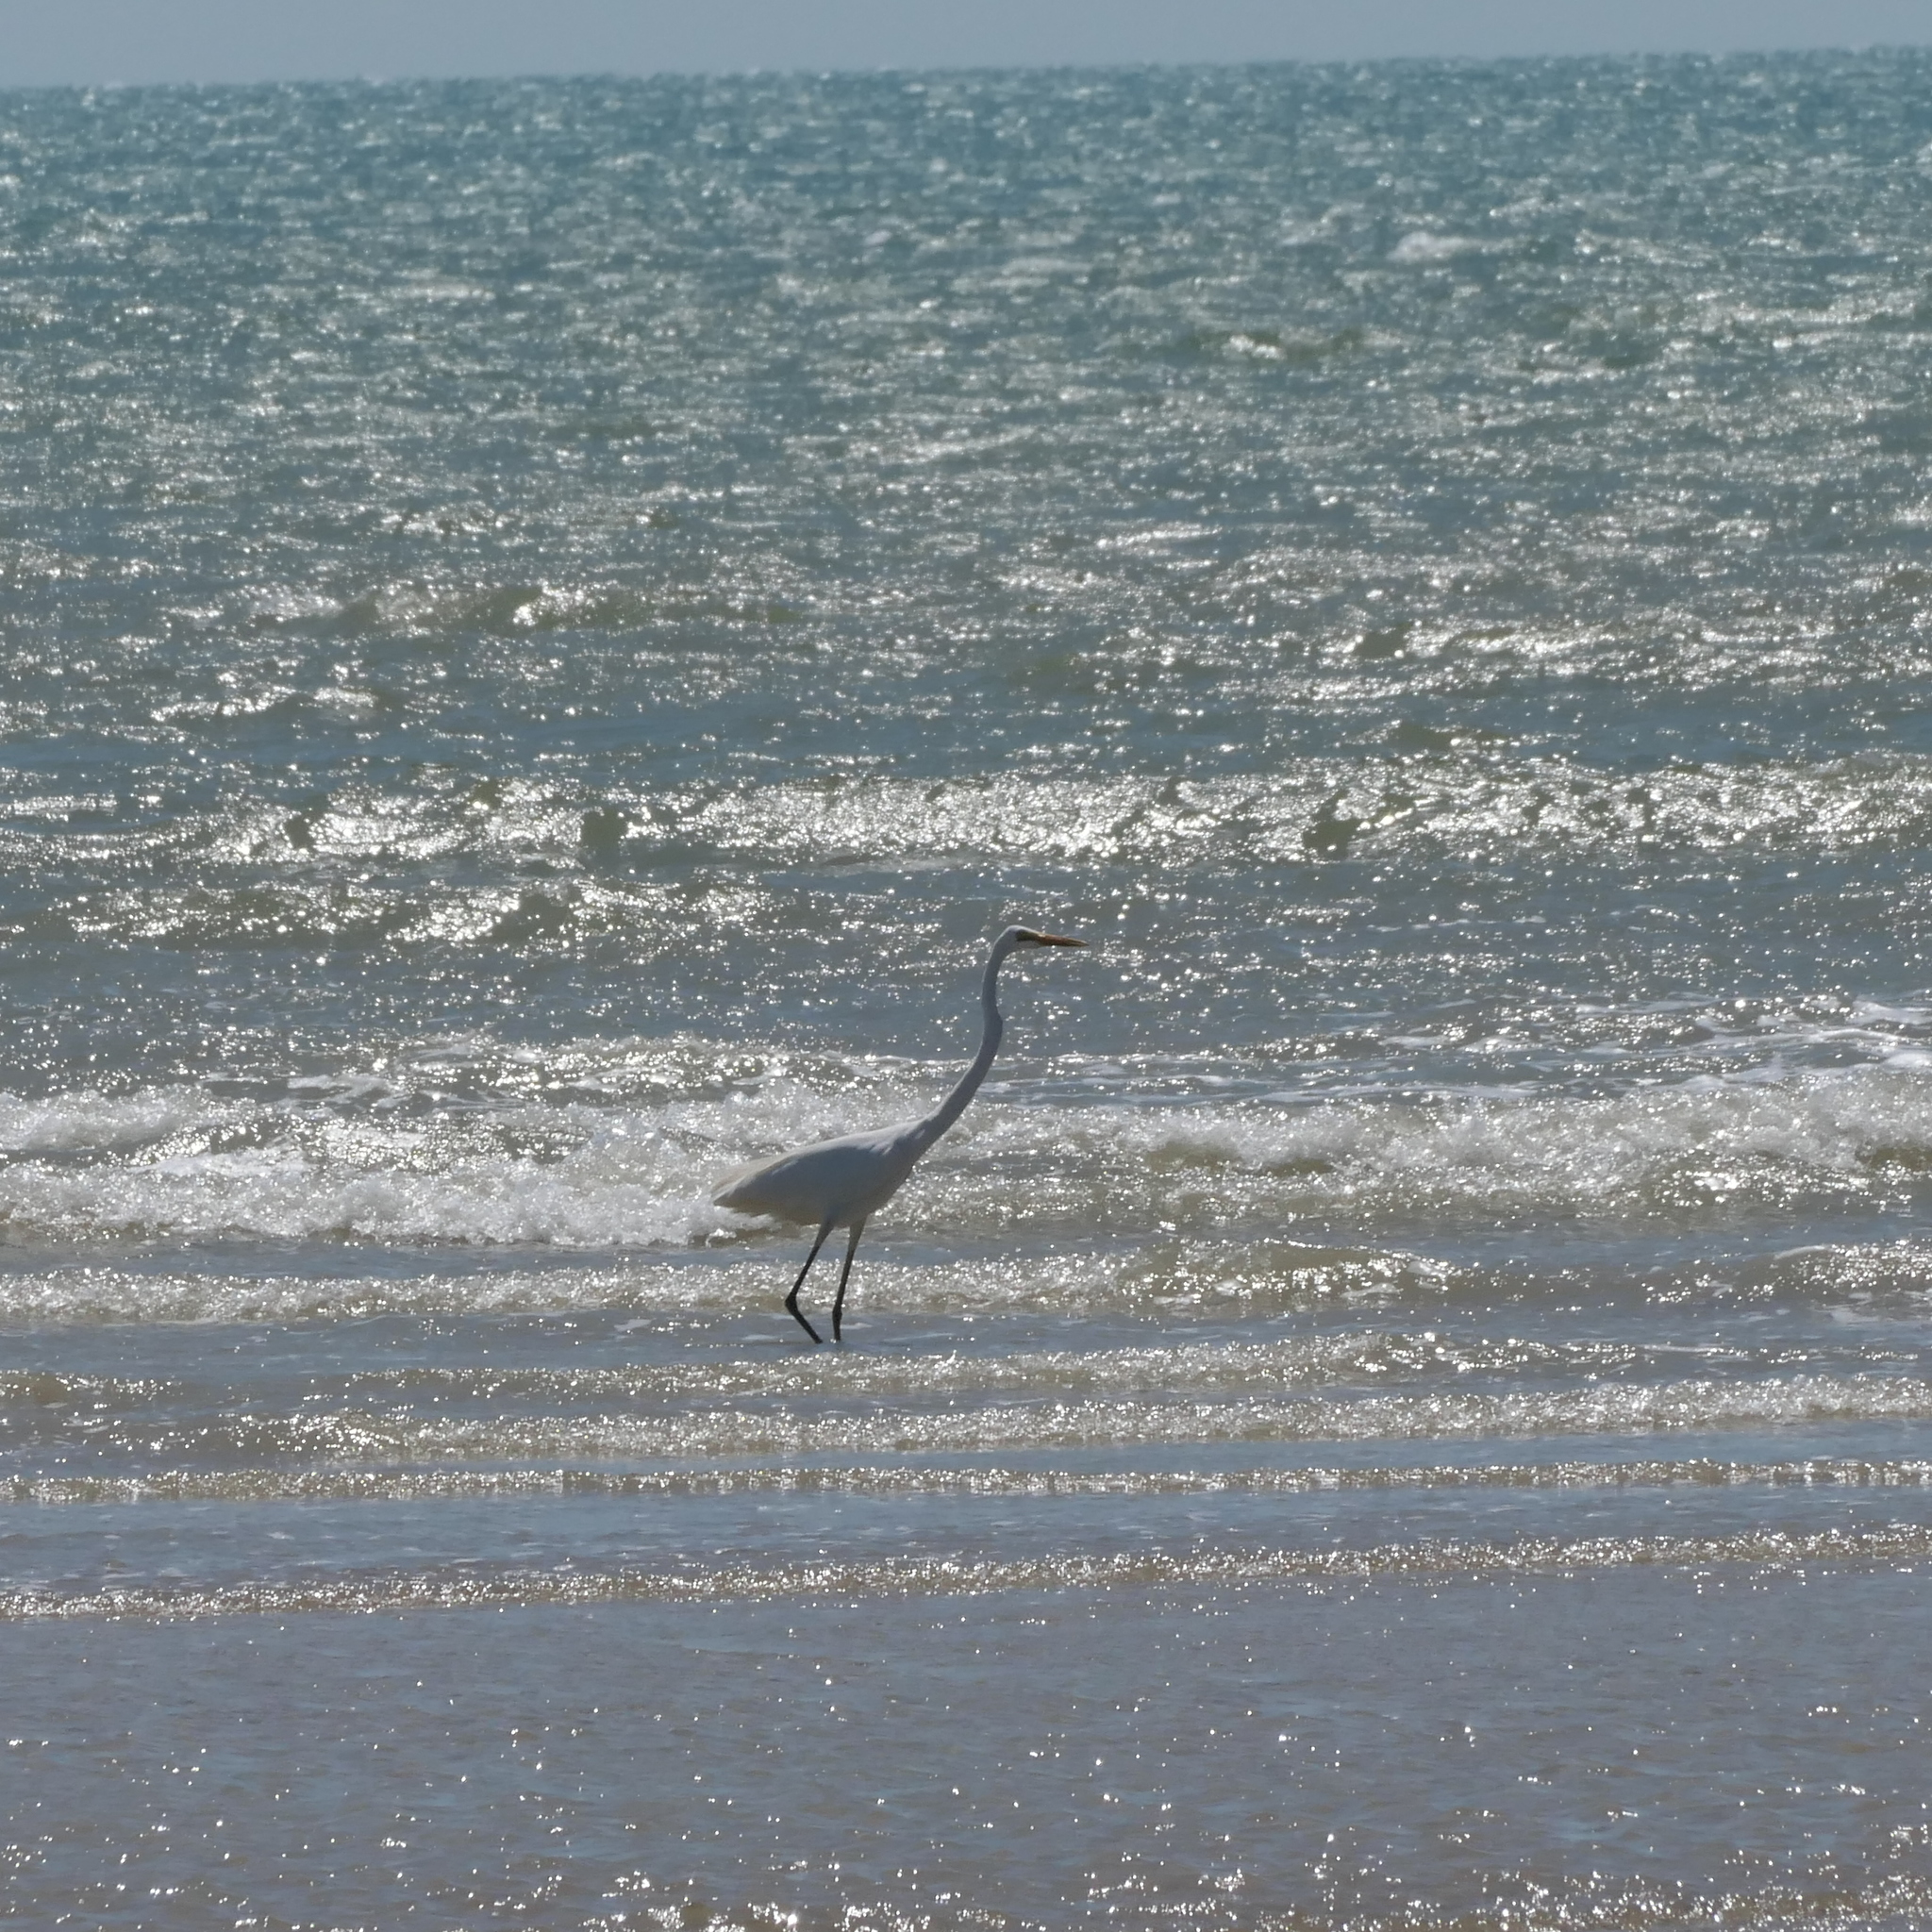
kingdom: Animalia
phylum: Chordata
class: Aves
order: Pelecaniformes
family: Ardeidae
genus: Ardea
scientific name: Ardea alba
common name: Great egret
